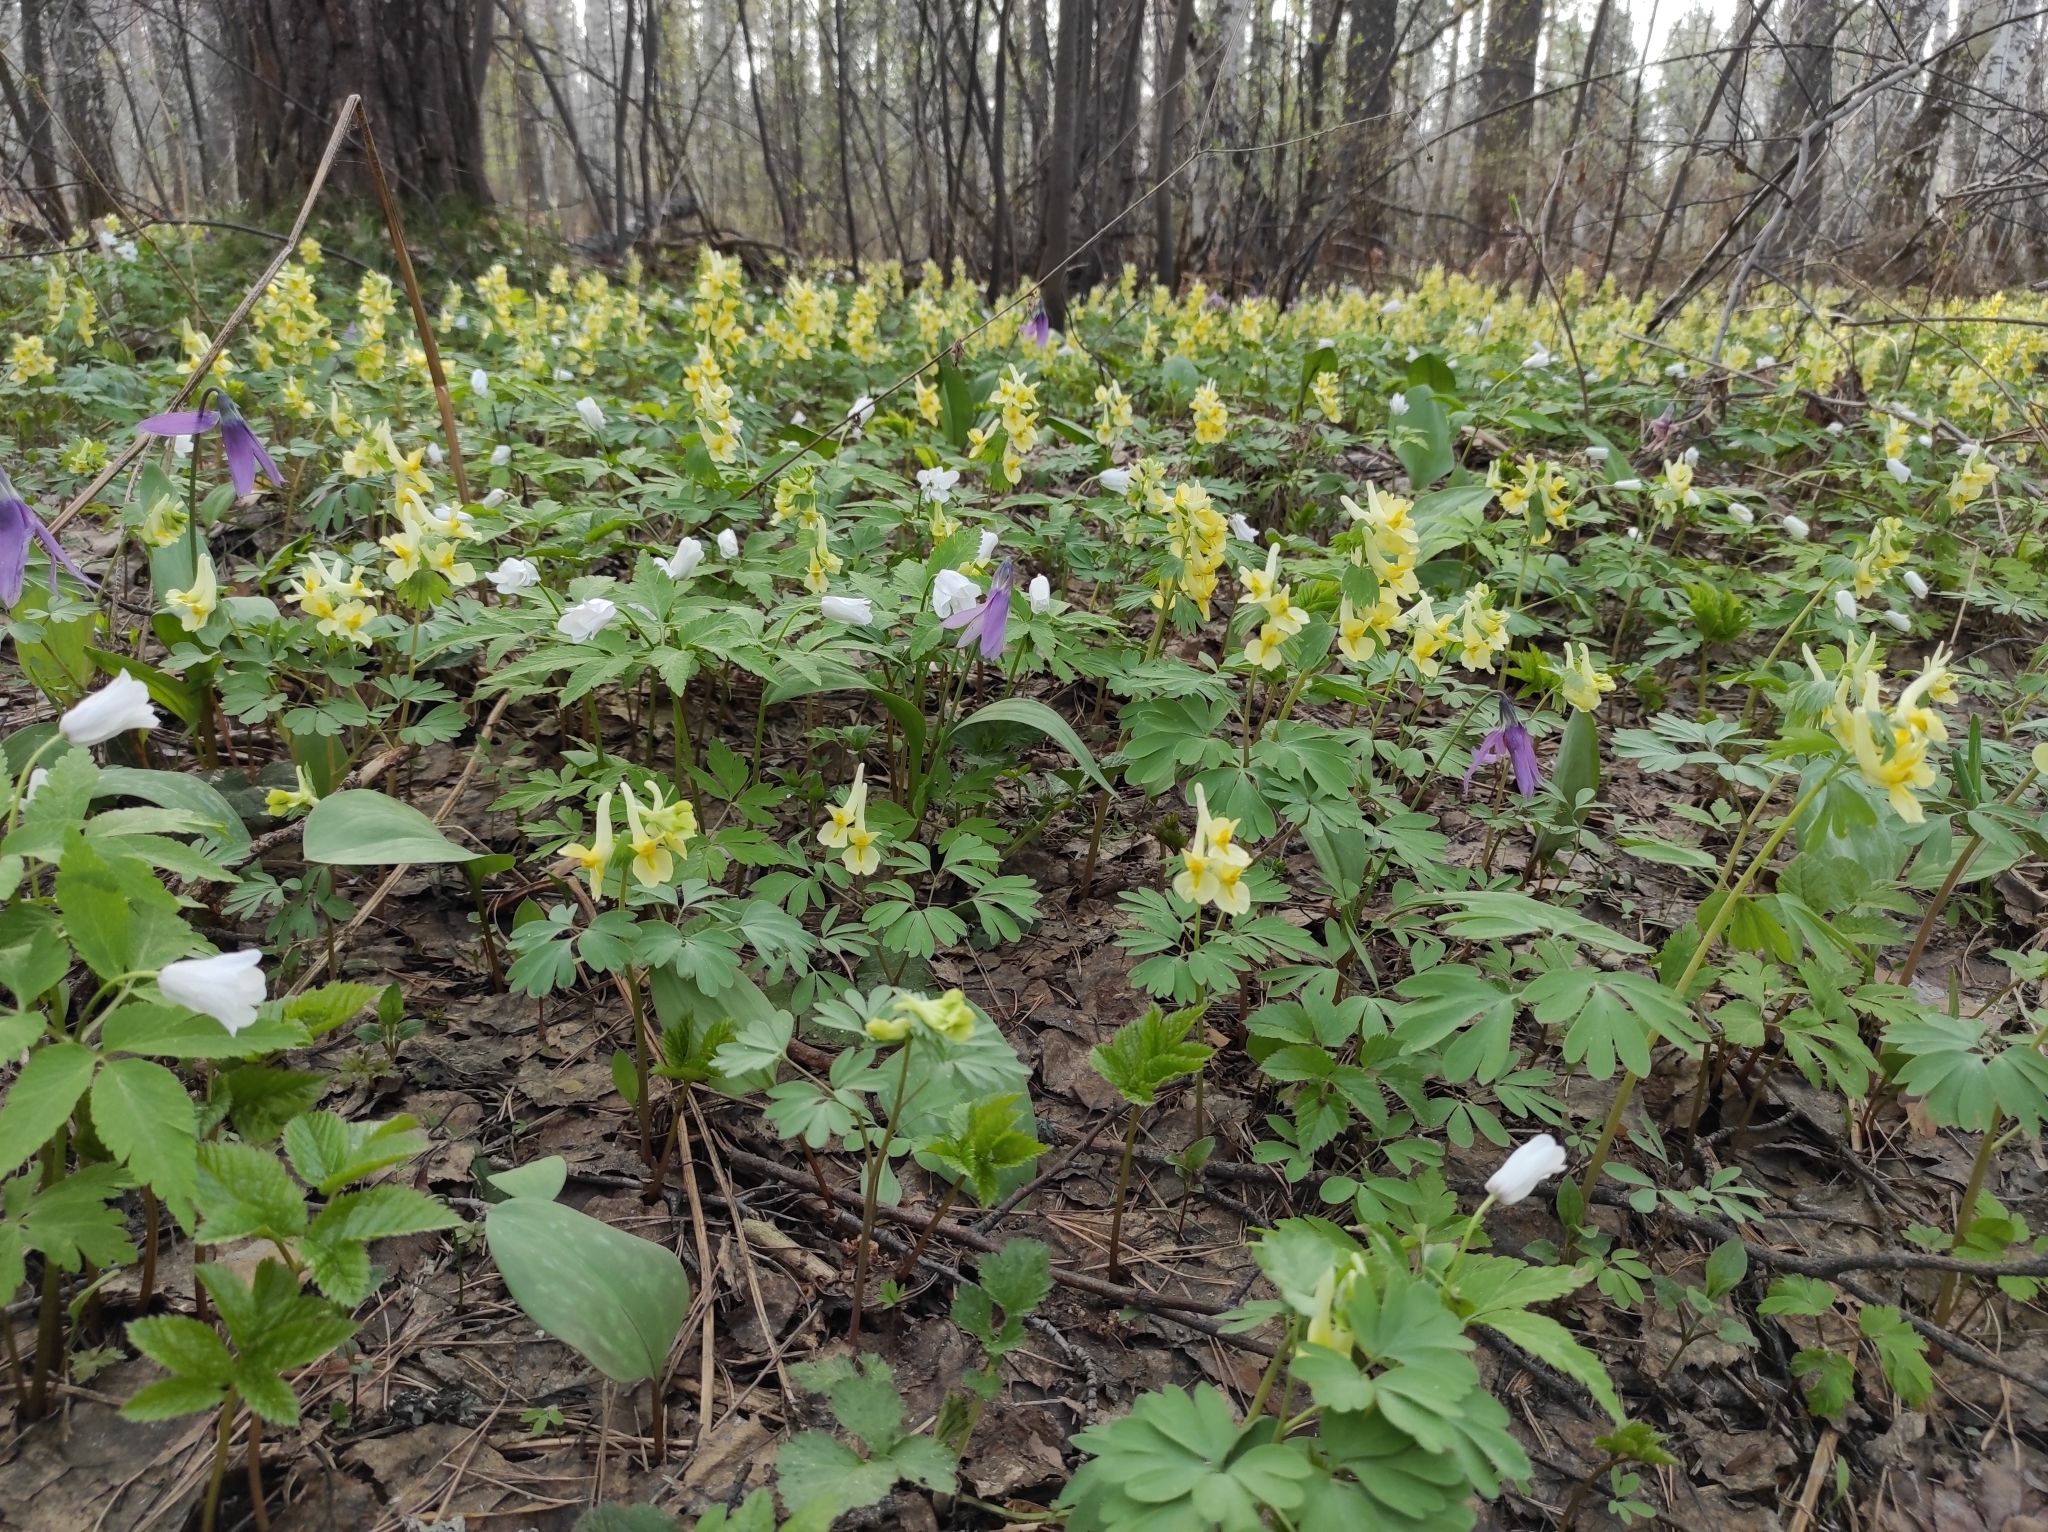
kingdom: Plantae
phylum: Tracheophyta
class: Magnoliopsida
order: Ranunculales
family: Papaveraceae
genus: Corydalis
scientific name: Corydalis bracteata
